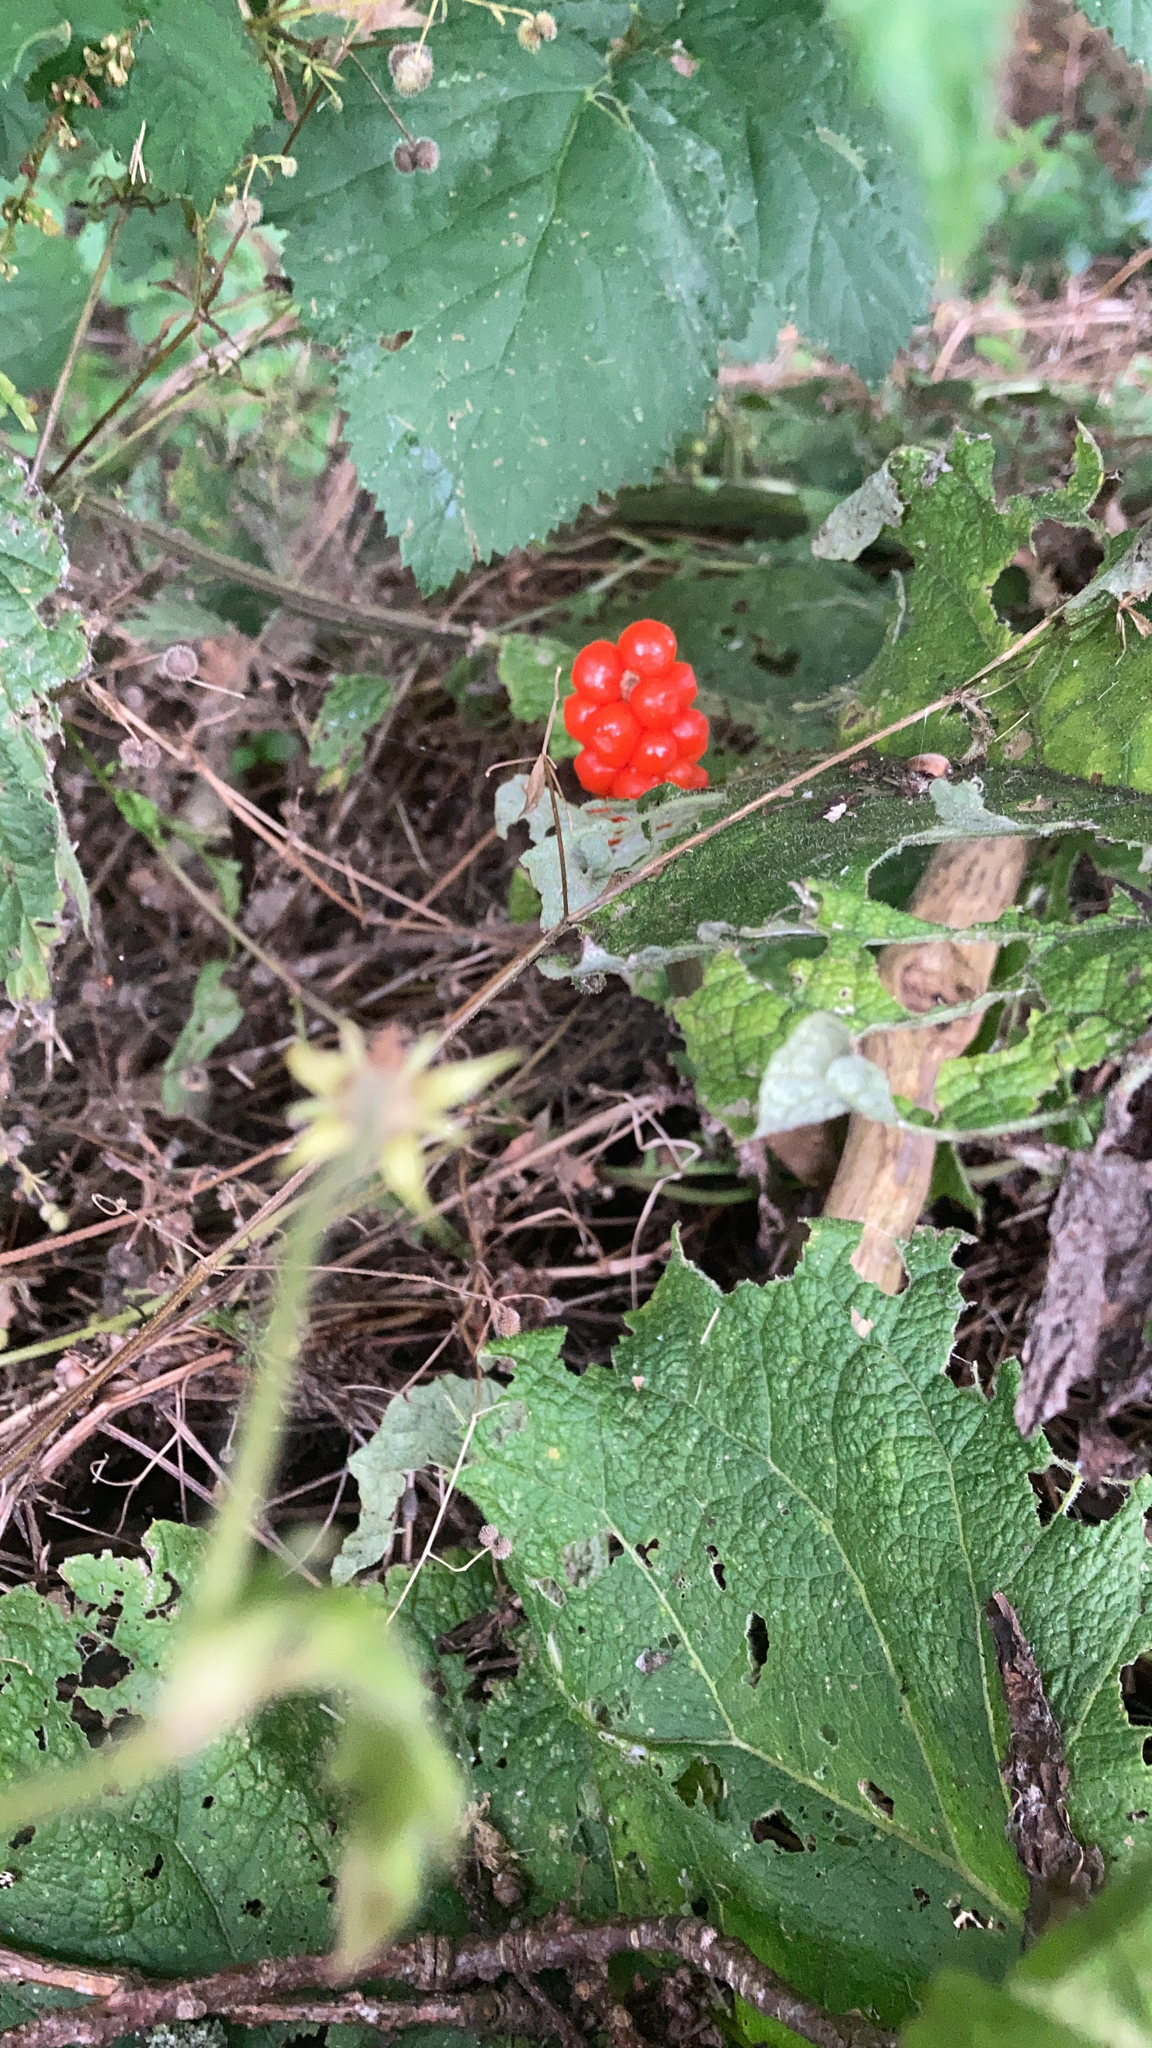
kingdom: Plantae
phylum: Tracheophyta
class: Liliopsida
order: Alismatales
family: Araceae
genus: Arum
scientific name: Arum maculatum
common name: Lords-and-ladies
